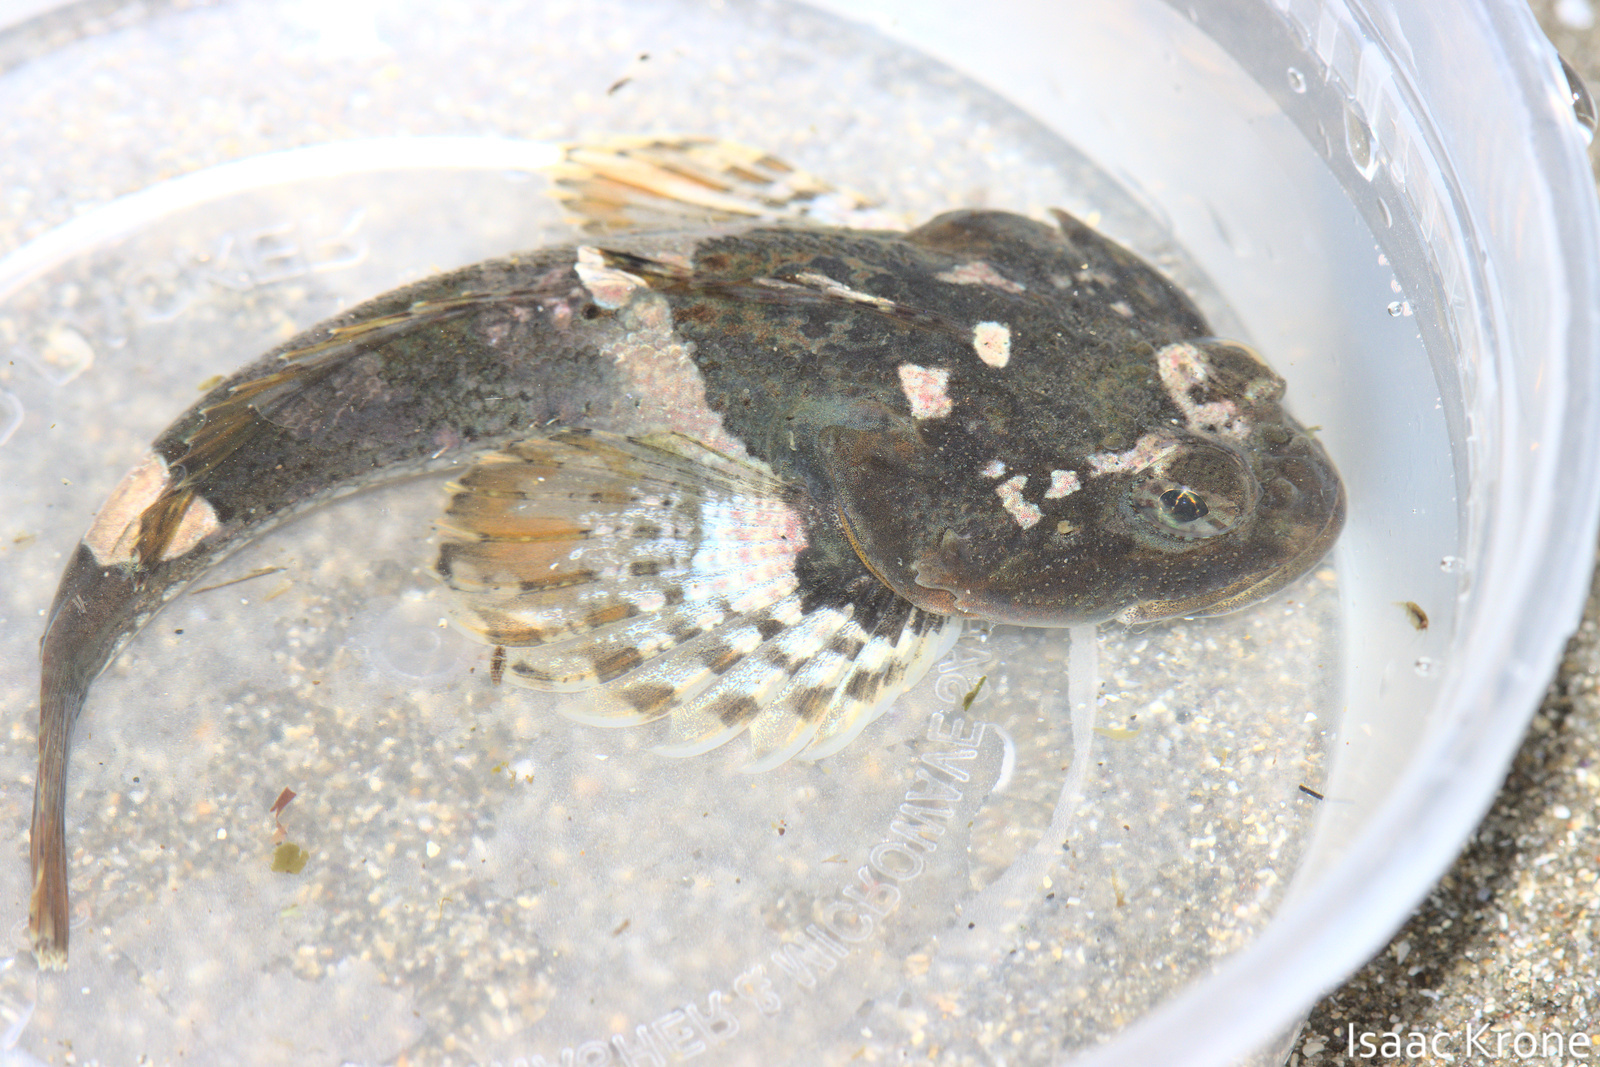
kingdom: Animalia
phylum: Chordata
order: Scorpaeniformes
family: Cottidae
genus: Artedius
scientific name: Artedius notospilotus
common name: Bonehead sculpin
